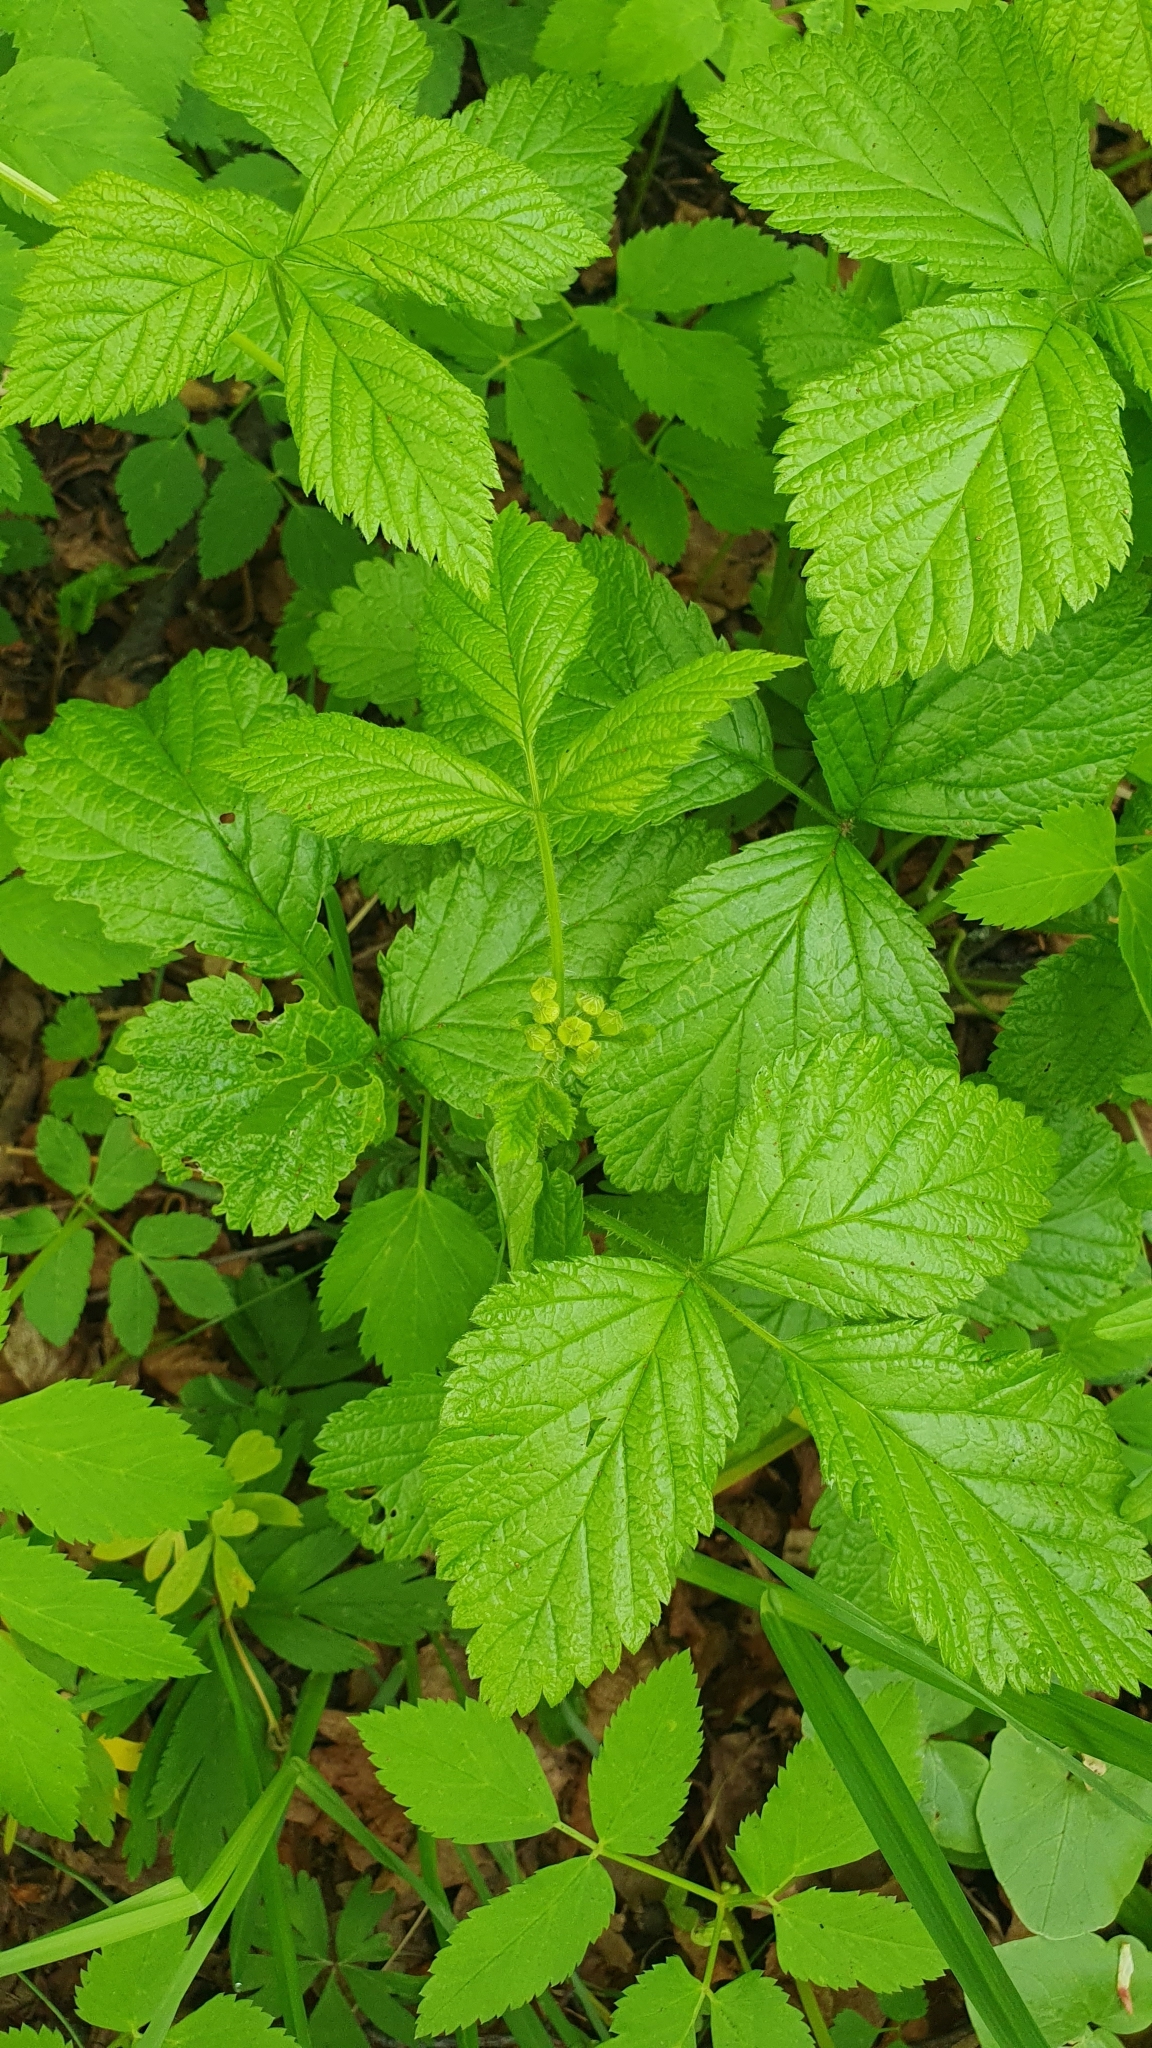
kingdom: Plantae
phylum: Tracheophyta
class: Magnoliopsida
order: Rosales
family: Rosaceae
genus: Rubus
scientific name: Rubus saxatilis
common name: Stone bramble
